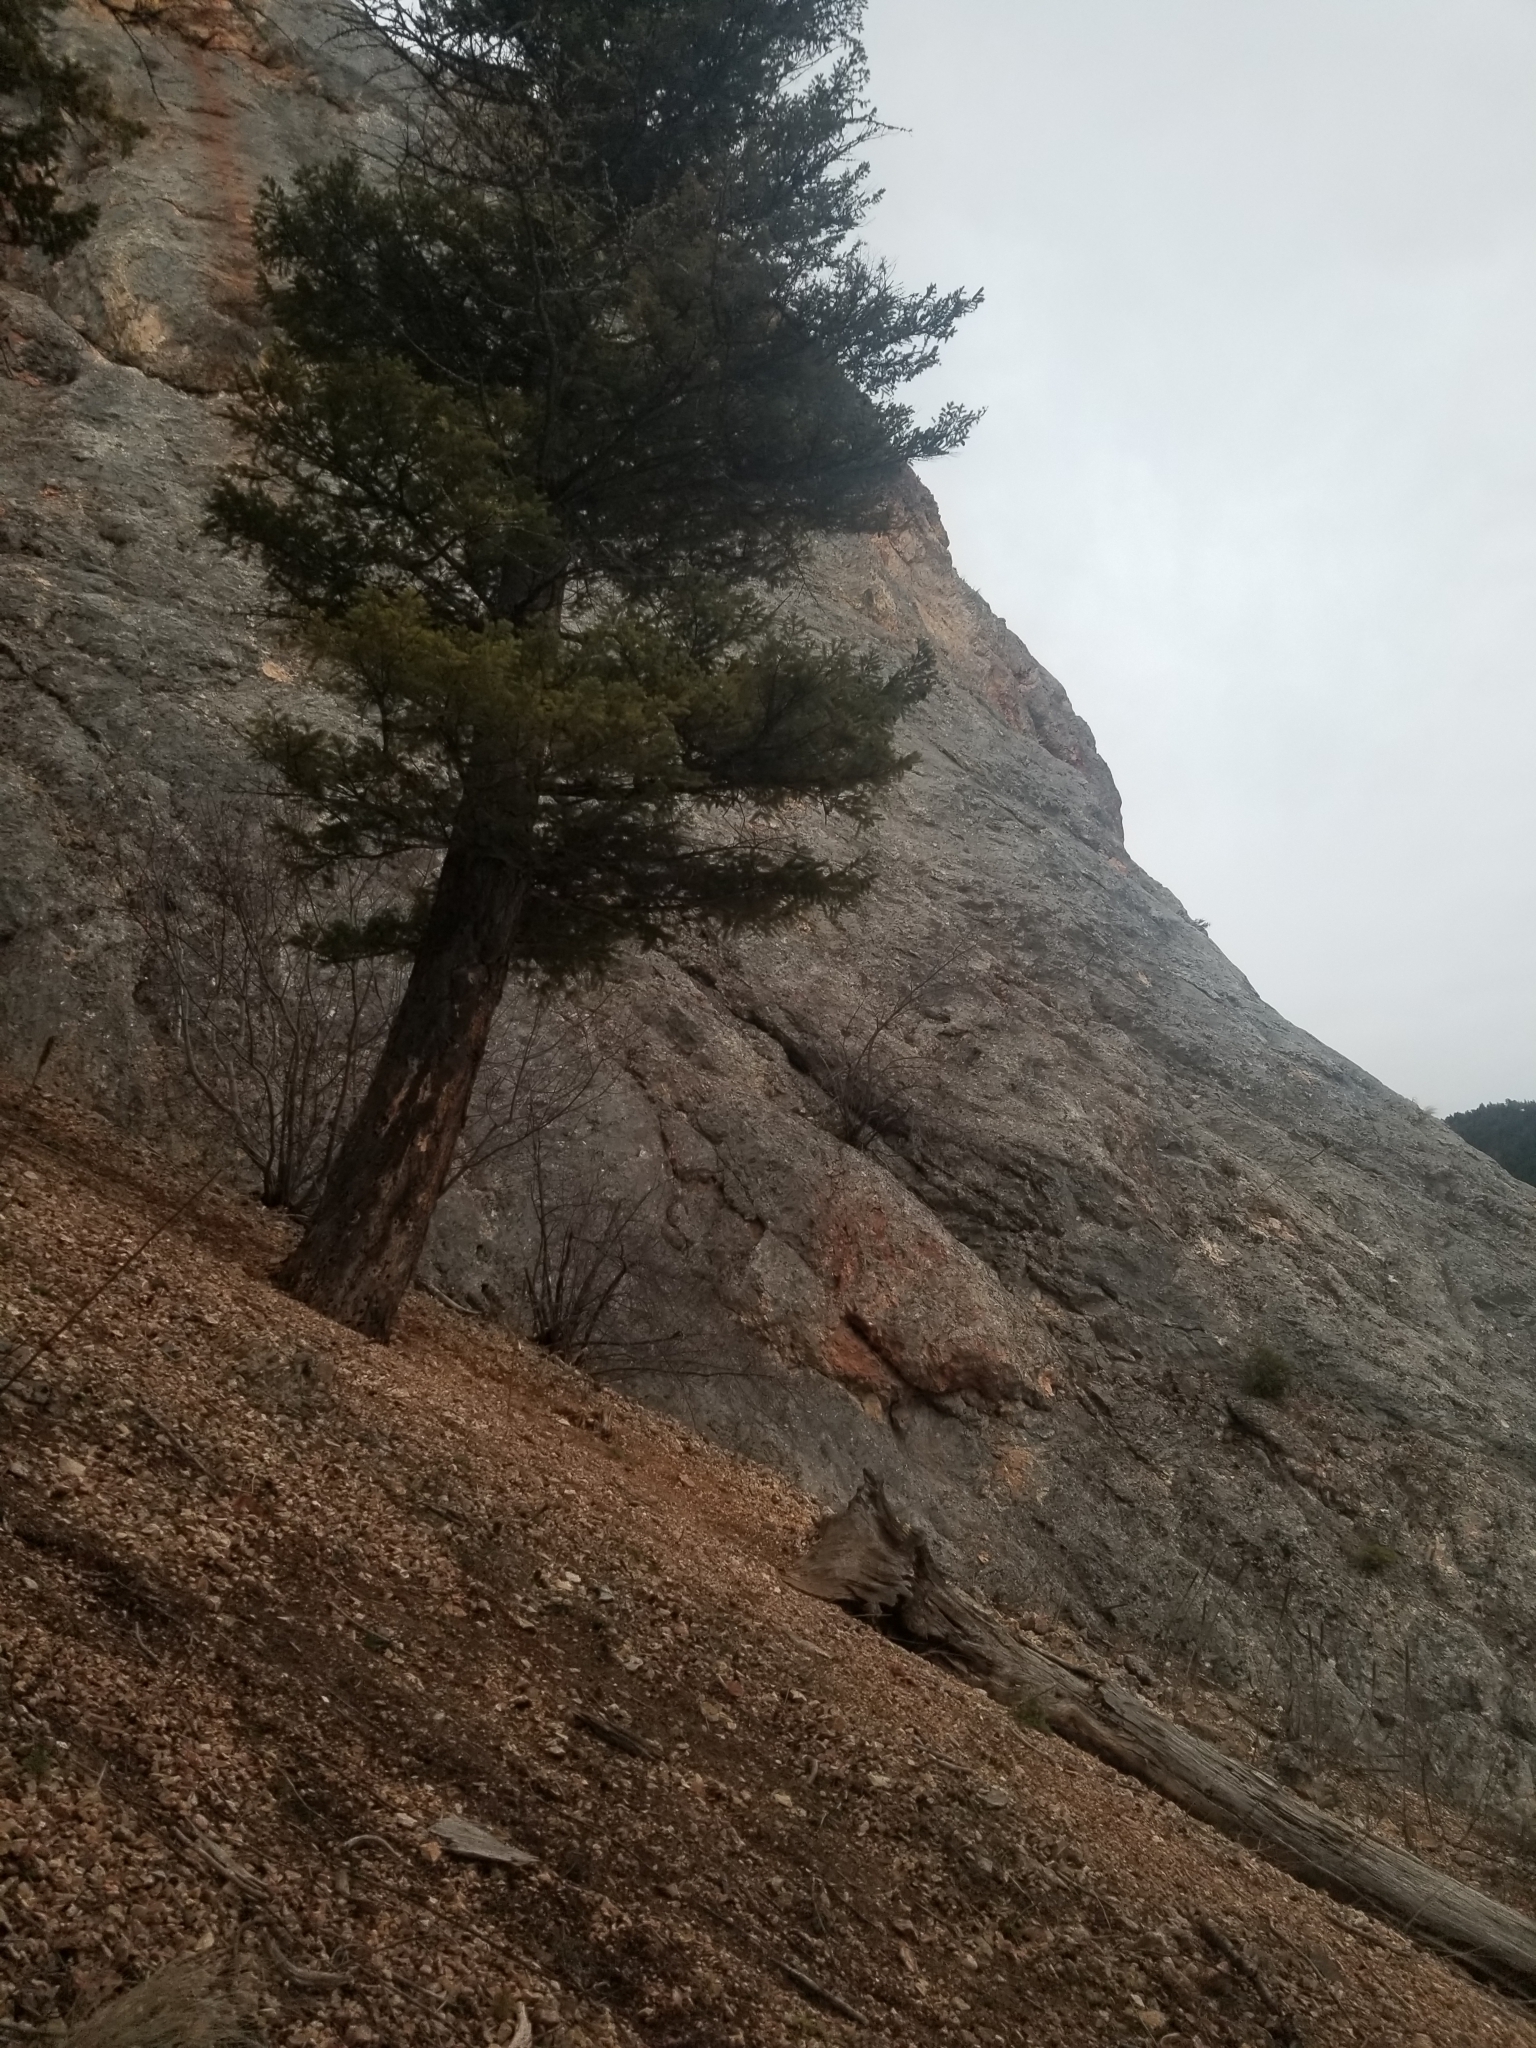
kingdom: Plantae
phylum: Tracheophyta
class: Pinopsida
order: Pinales
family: Pinaceae
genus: Pseudotsuga
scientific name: Pseudotsuga menziesii
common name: Douglas fir
